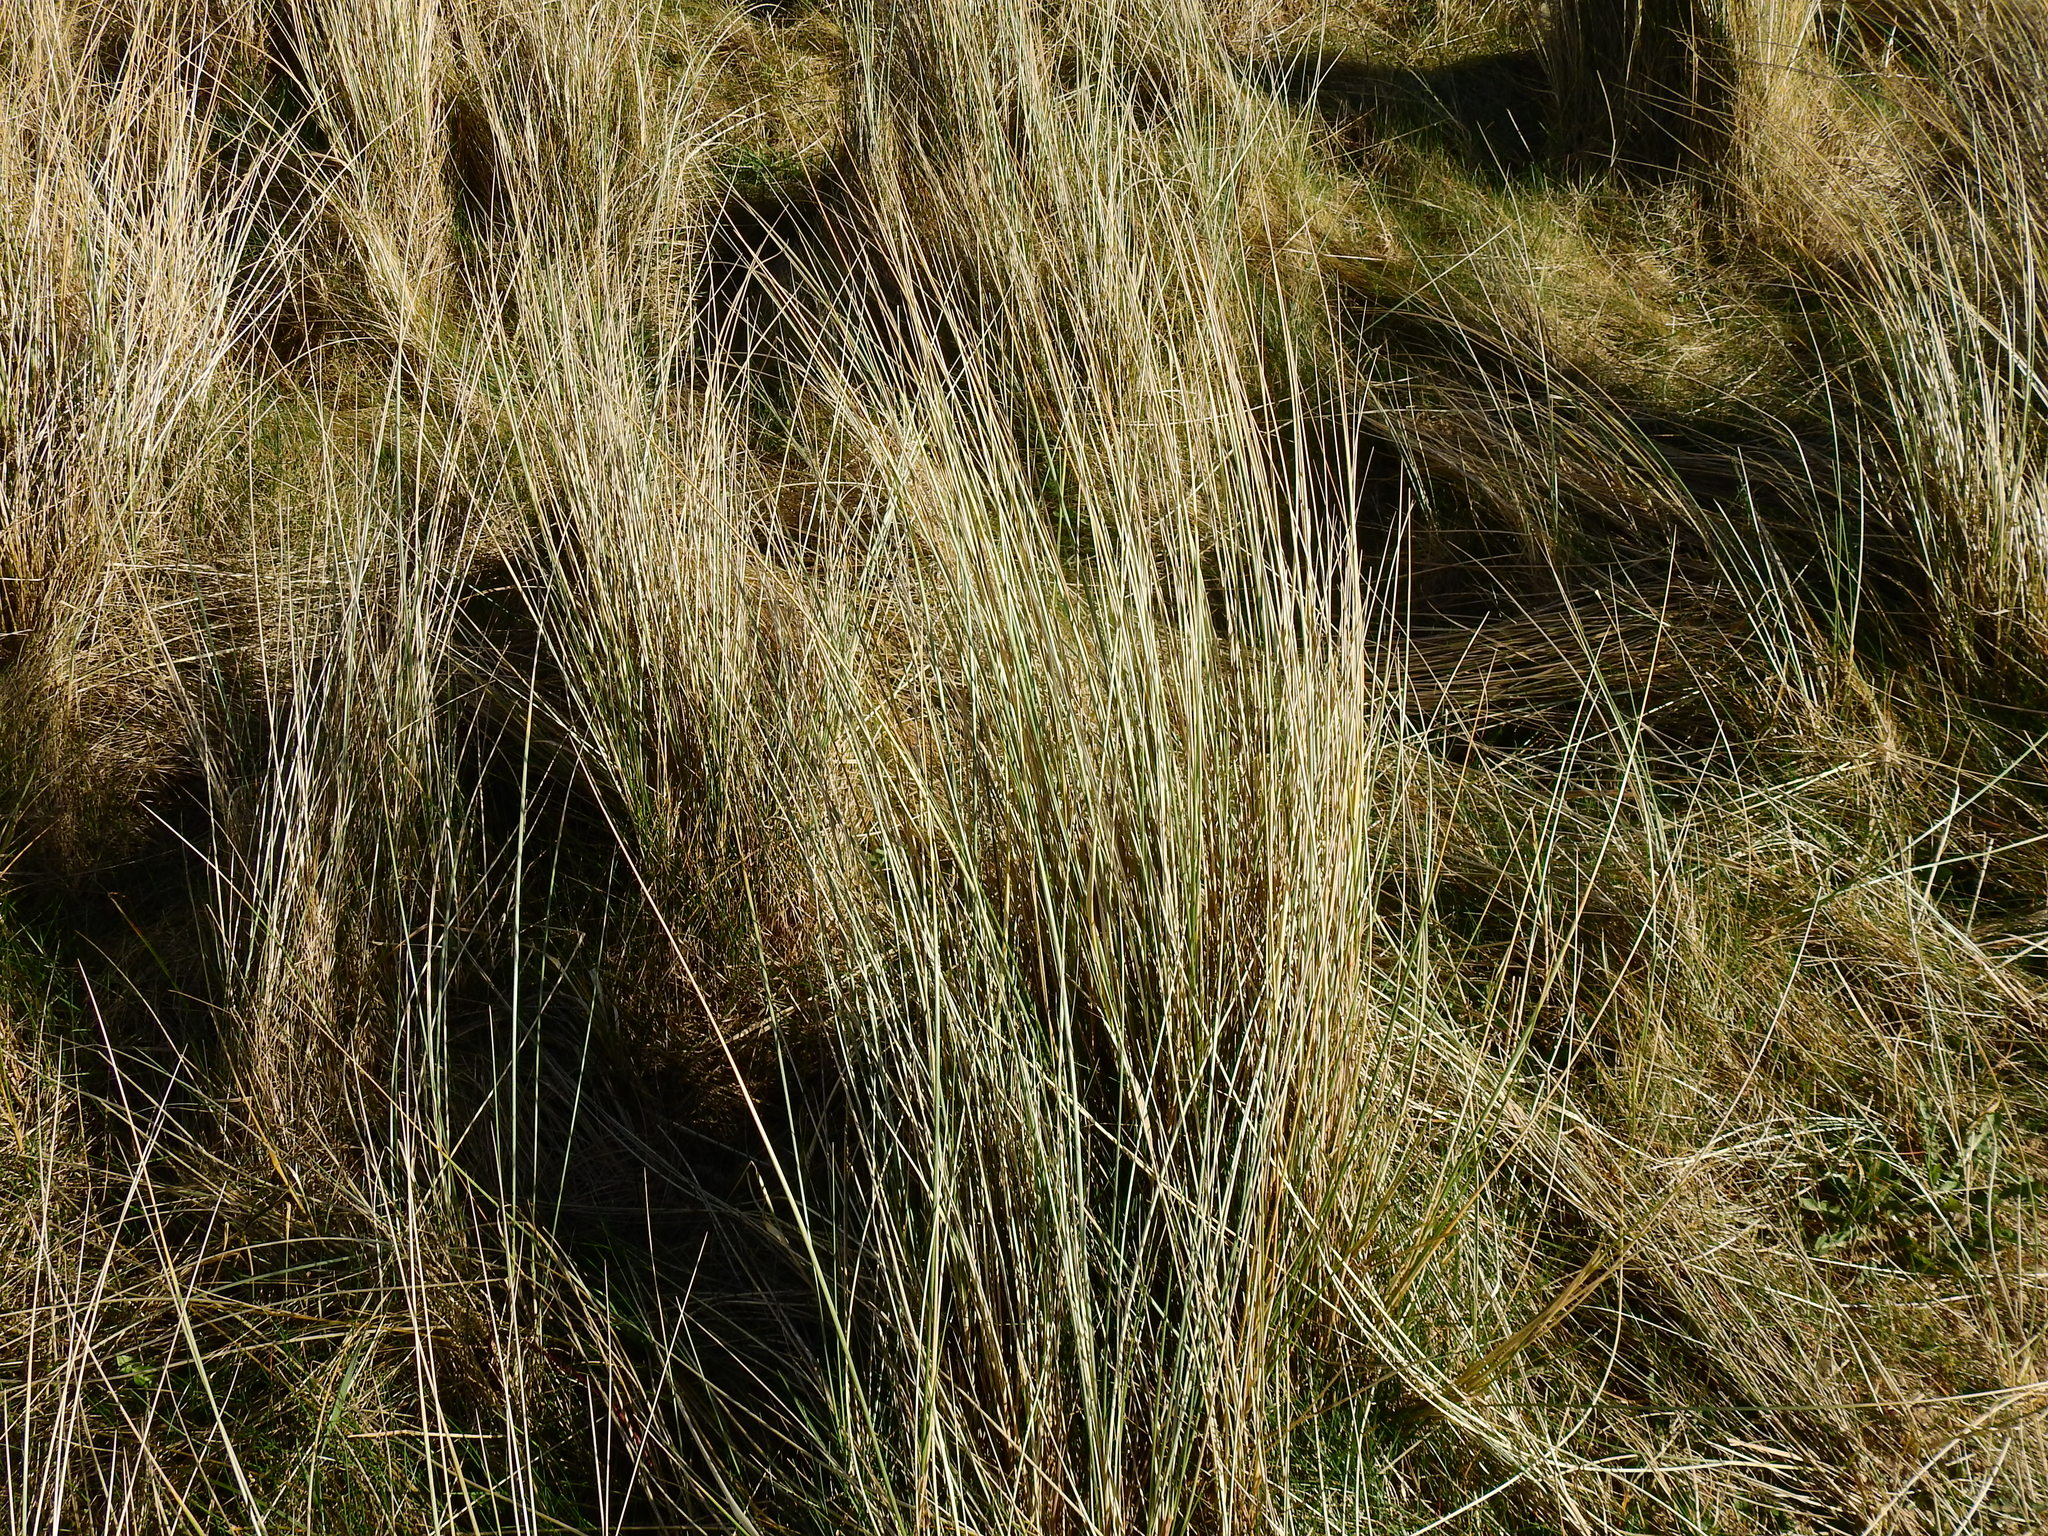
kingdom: Plantae
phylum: Tracheophyta
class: Liliopsida
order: Poales
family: Poaceae
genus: Calamagrostis
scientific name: Calamagrostis arenaria
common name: European beachgrass
